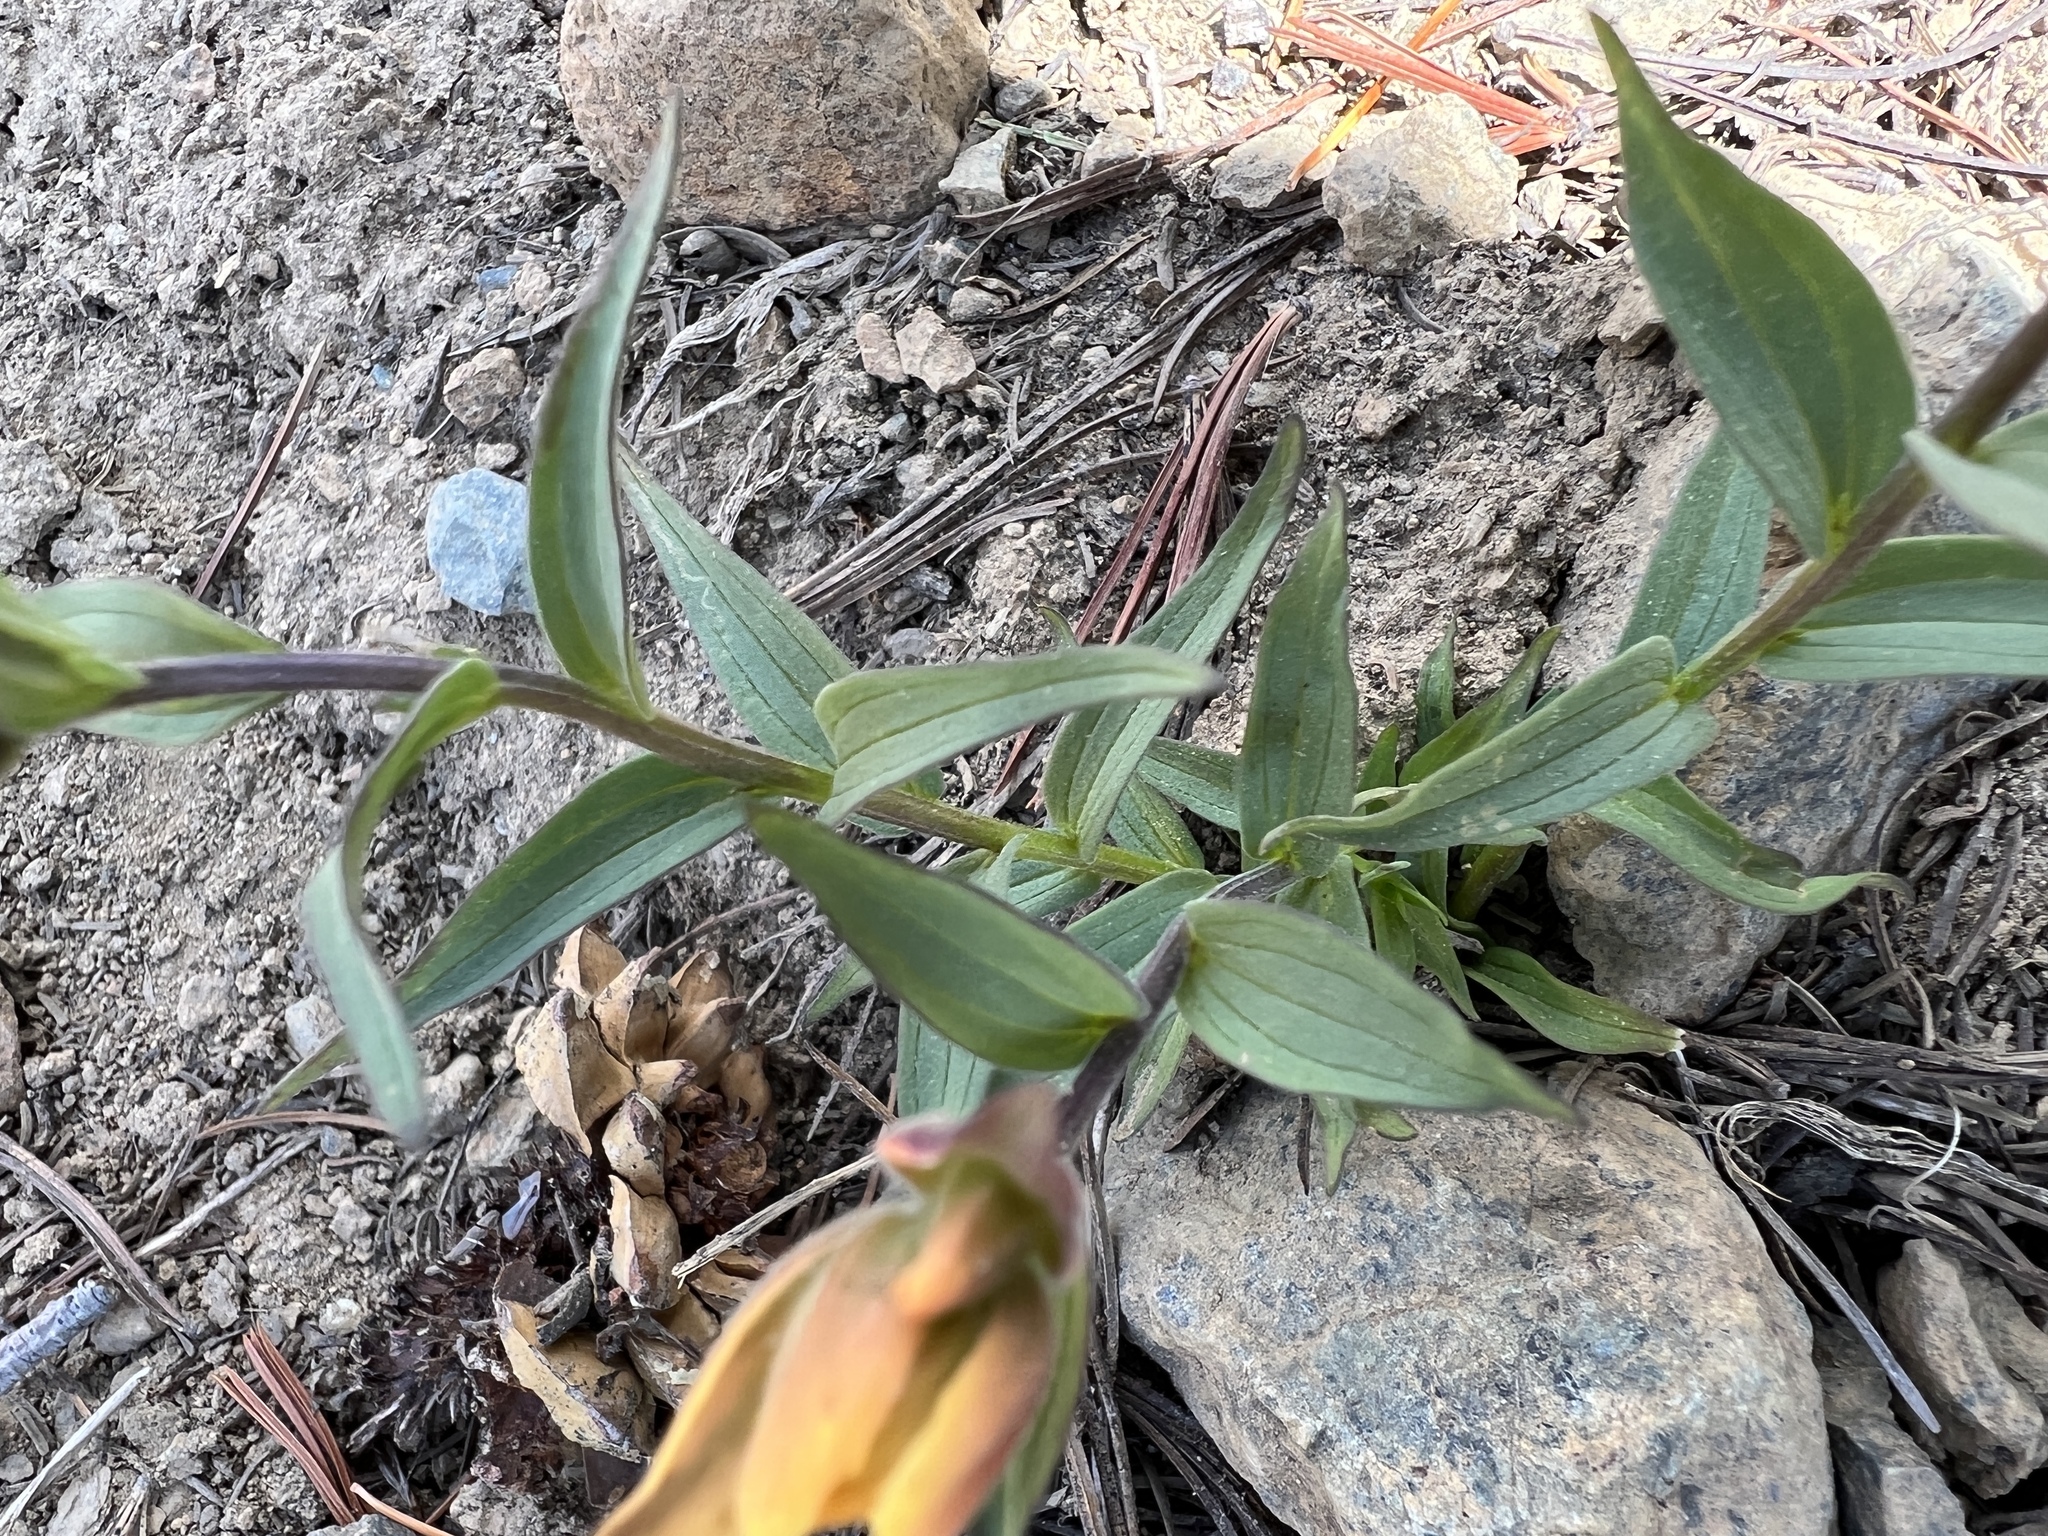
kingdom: Plantae
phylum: Tracheophyta
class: Magnoliopsida
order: Lamiales
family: Orobanchaceae
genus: Castilleja
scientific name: Castilleja elmeri
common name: Elmer's paintbrush
